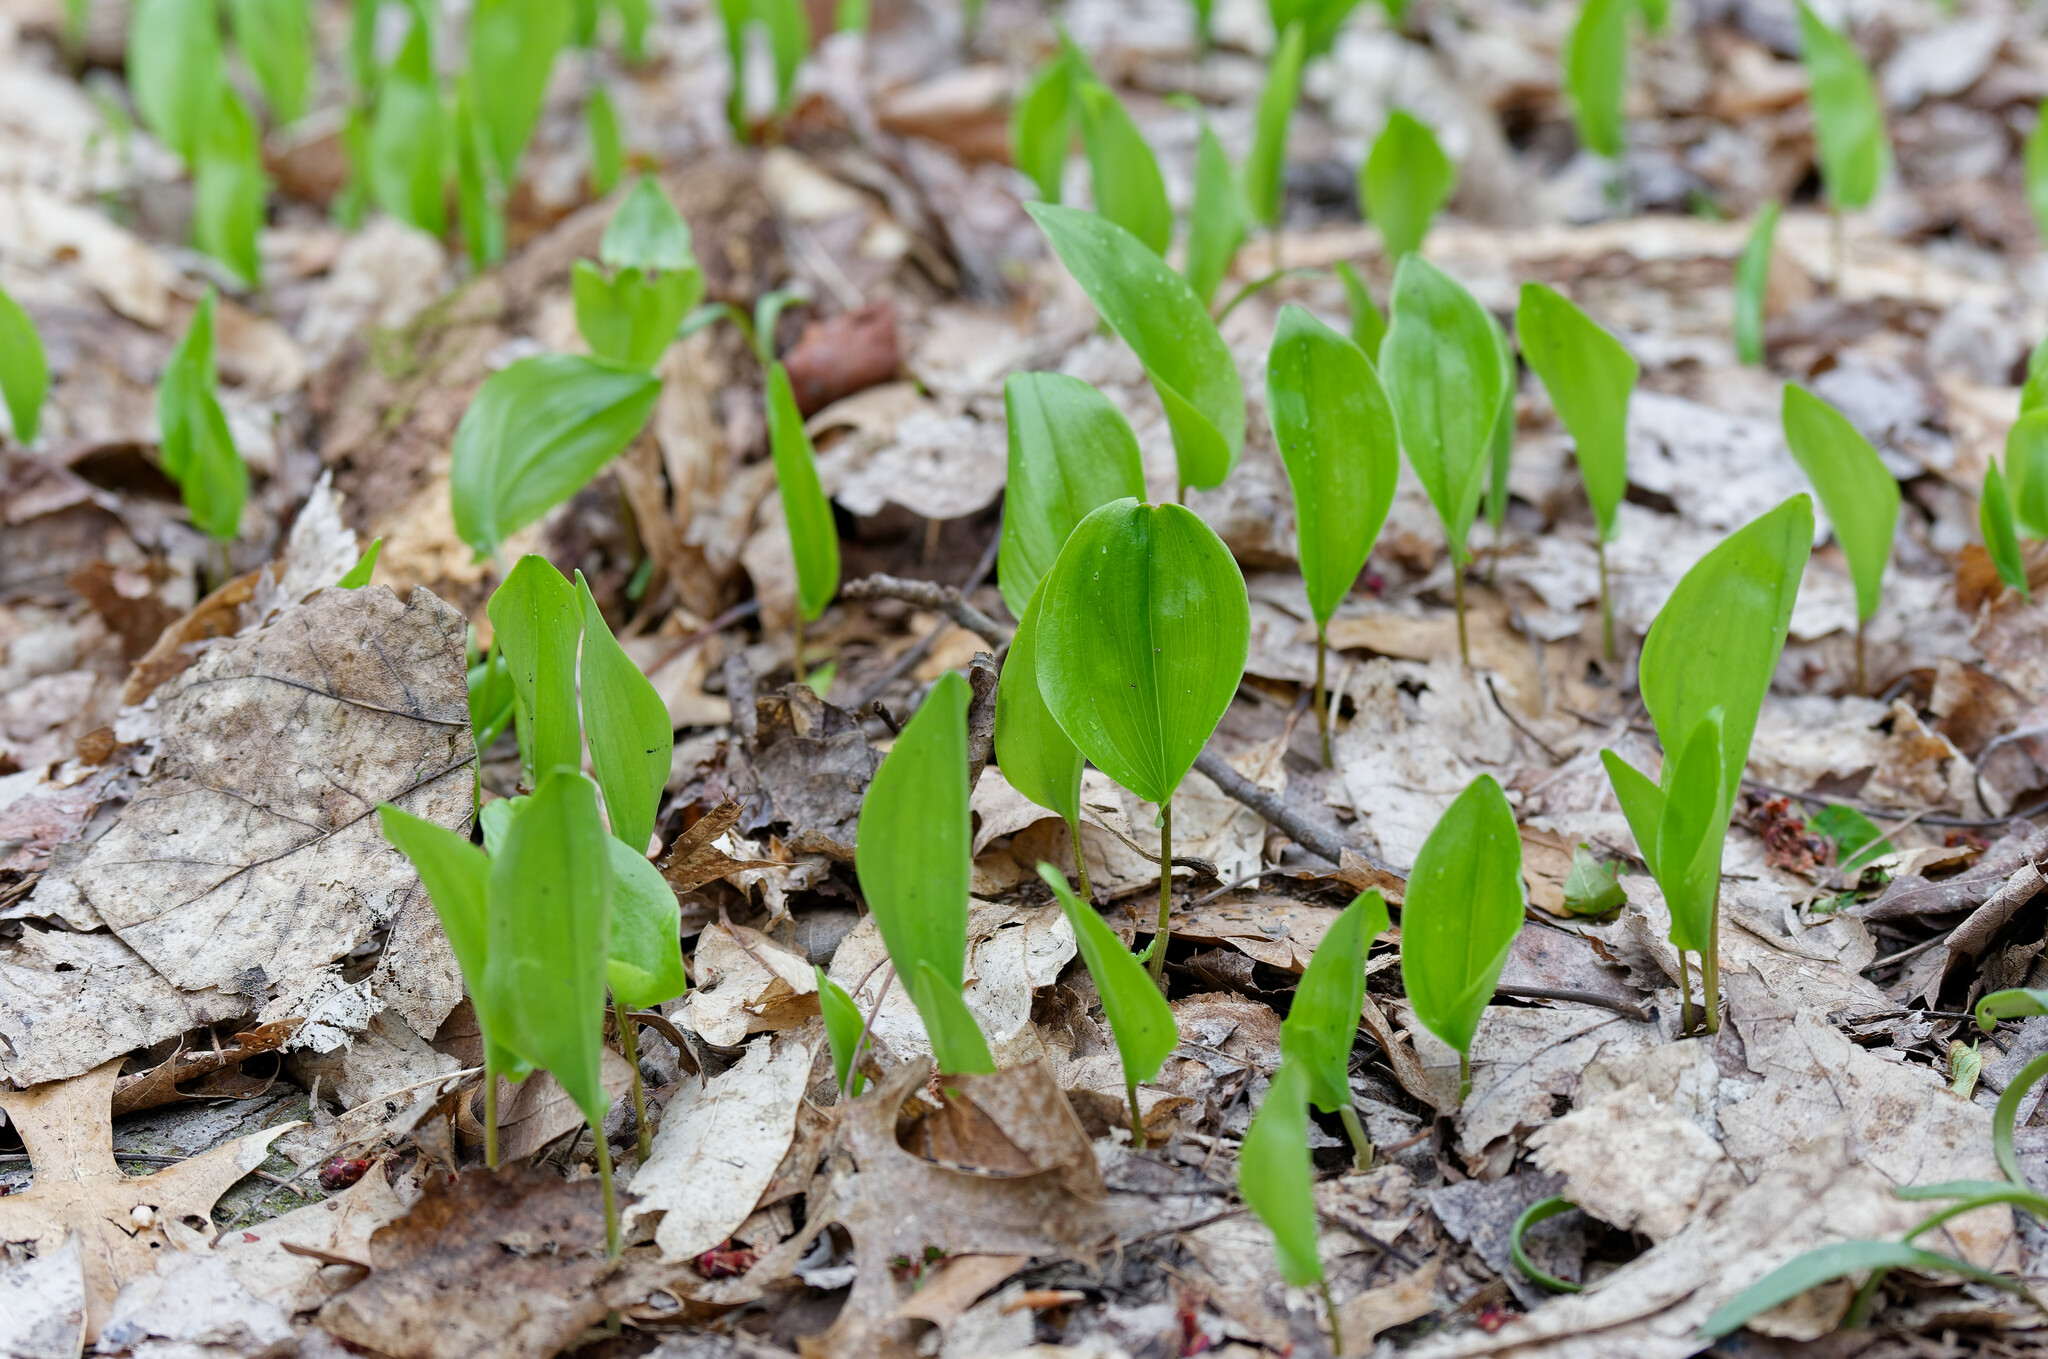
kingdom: Plantae
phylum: Tracheophyta
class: Liliopsida
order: Asparagales
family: Asparagaceae
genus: Maianthemum
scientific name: Maianthemum canadense
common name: False lily-of-the-valley
